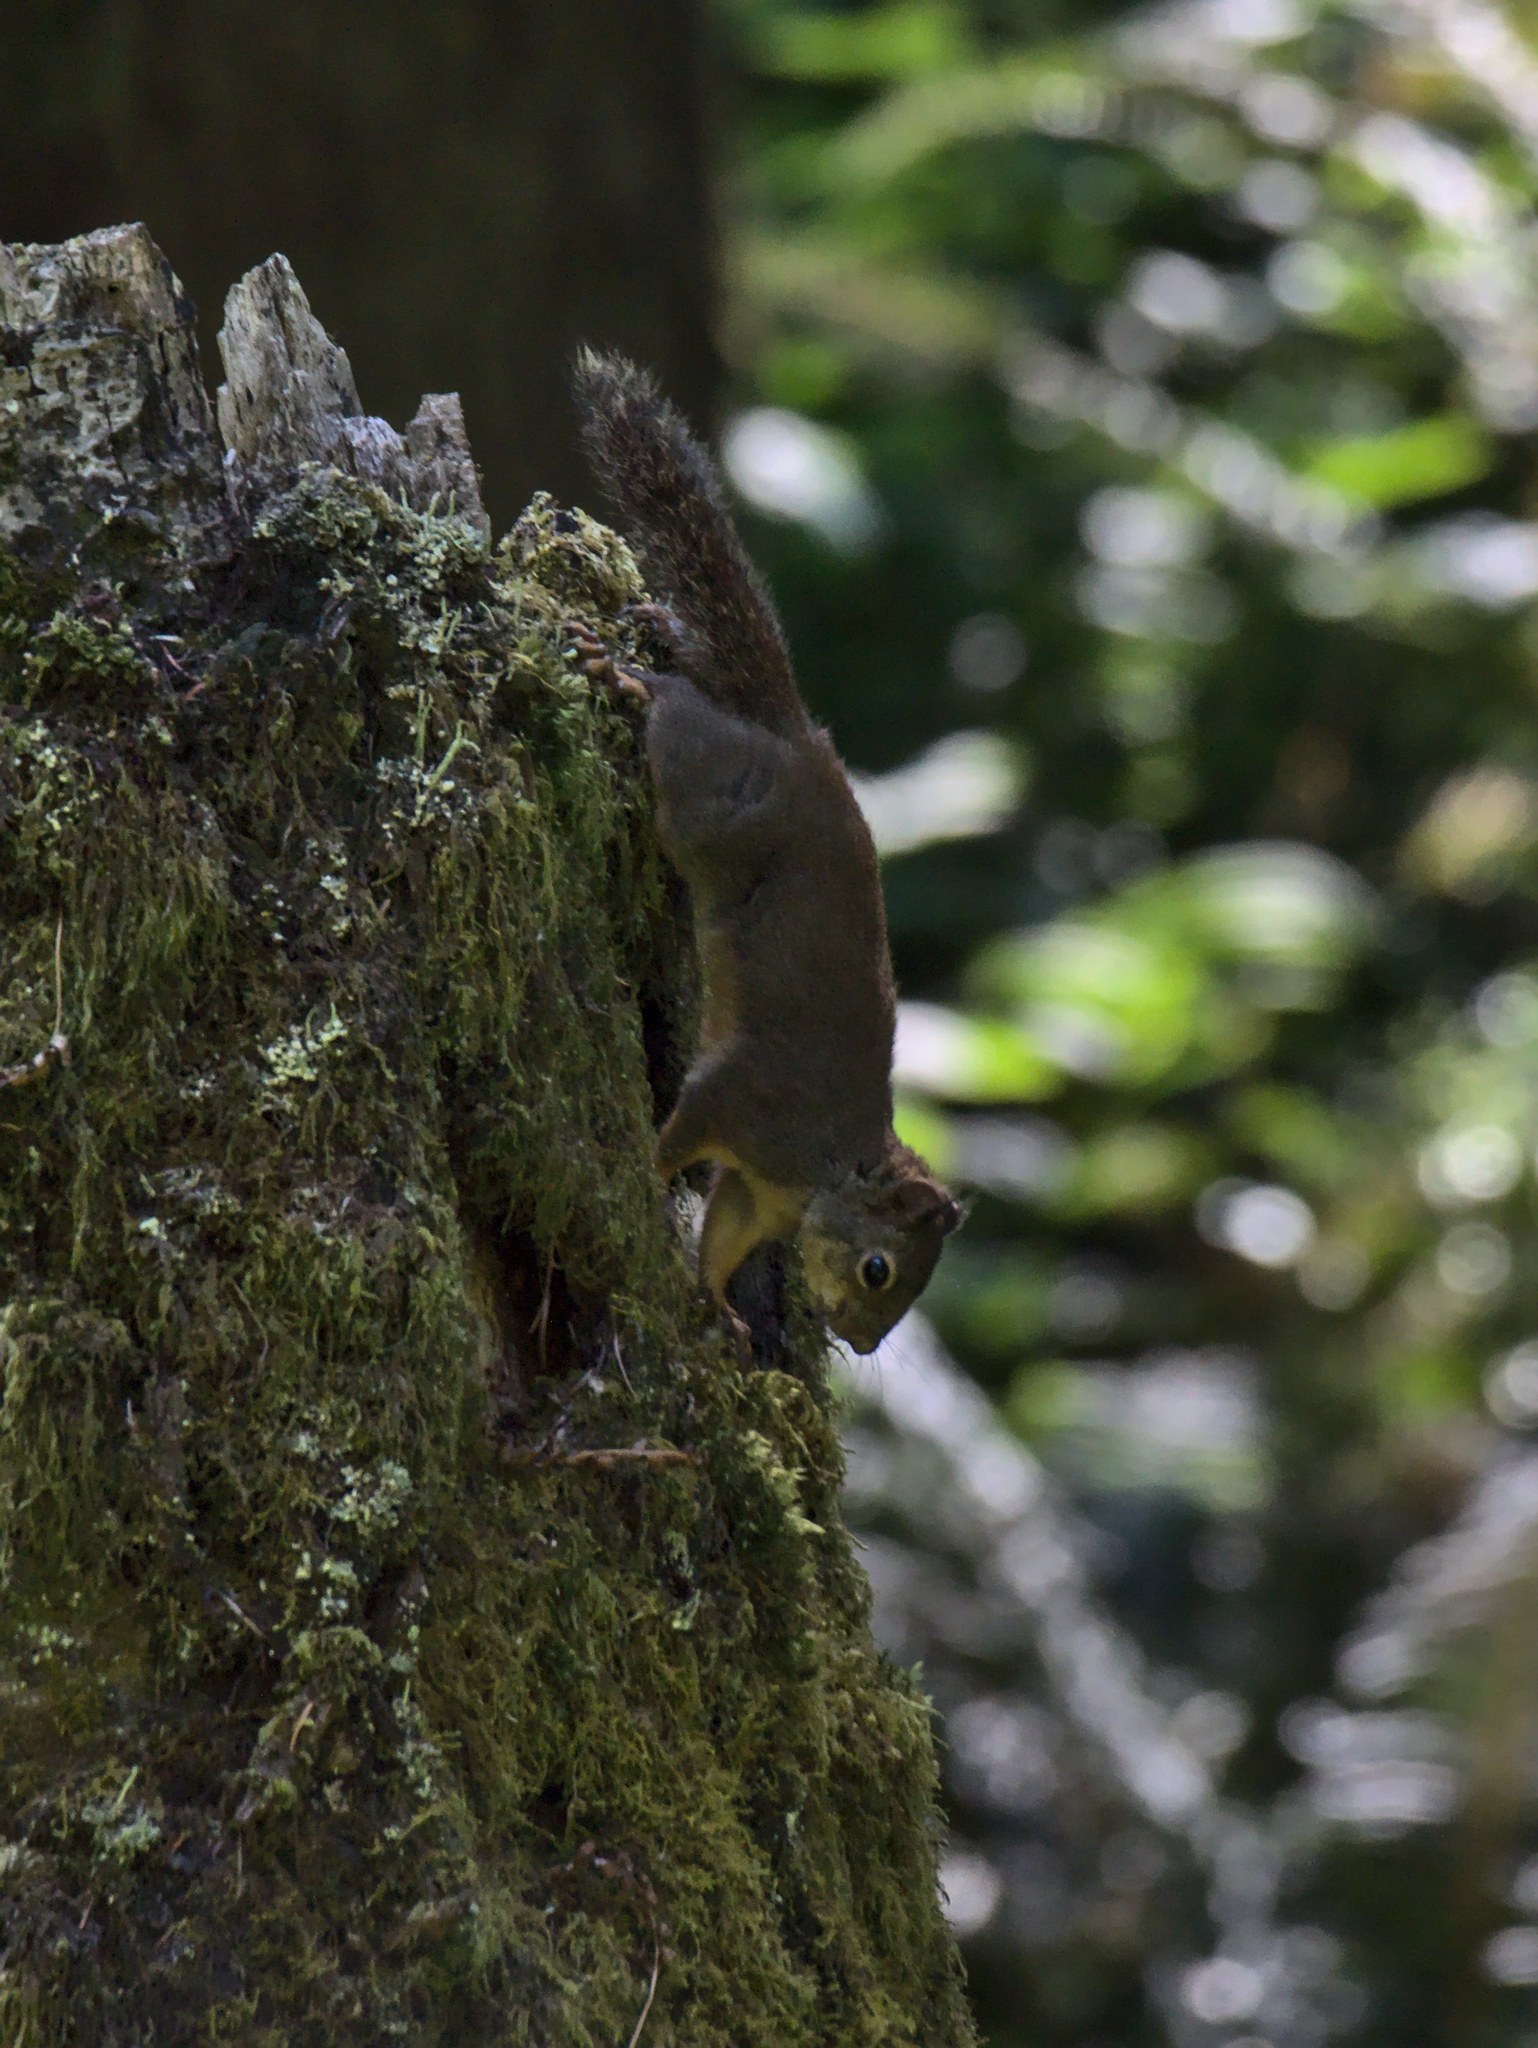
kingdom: Animalia
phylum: Chordata
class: Mammalia
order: Rodentia
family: Sciuridae
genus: Tamiasciurus
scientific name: Tamiasciurus douglasii
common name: Douglas's squirrel
